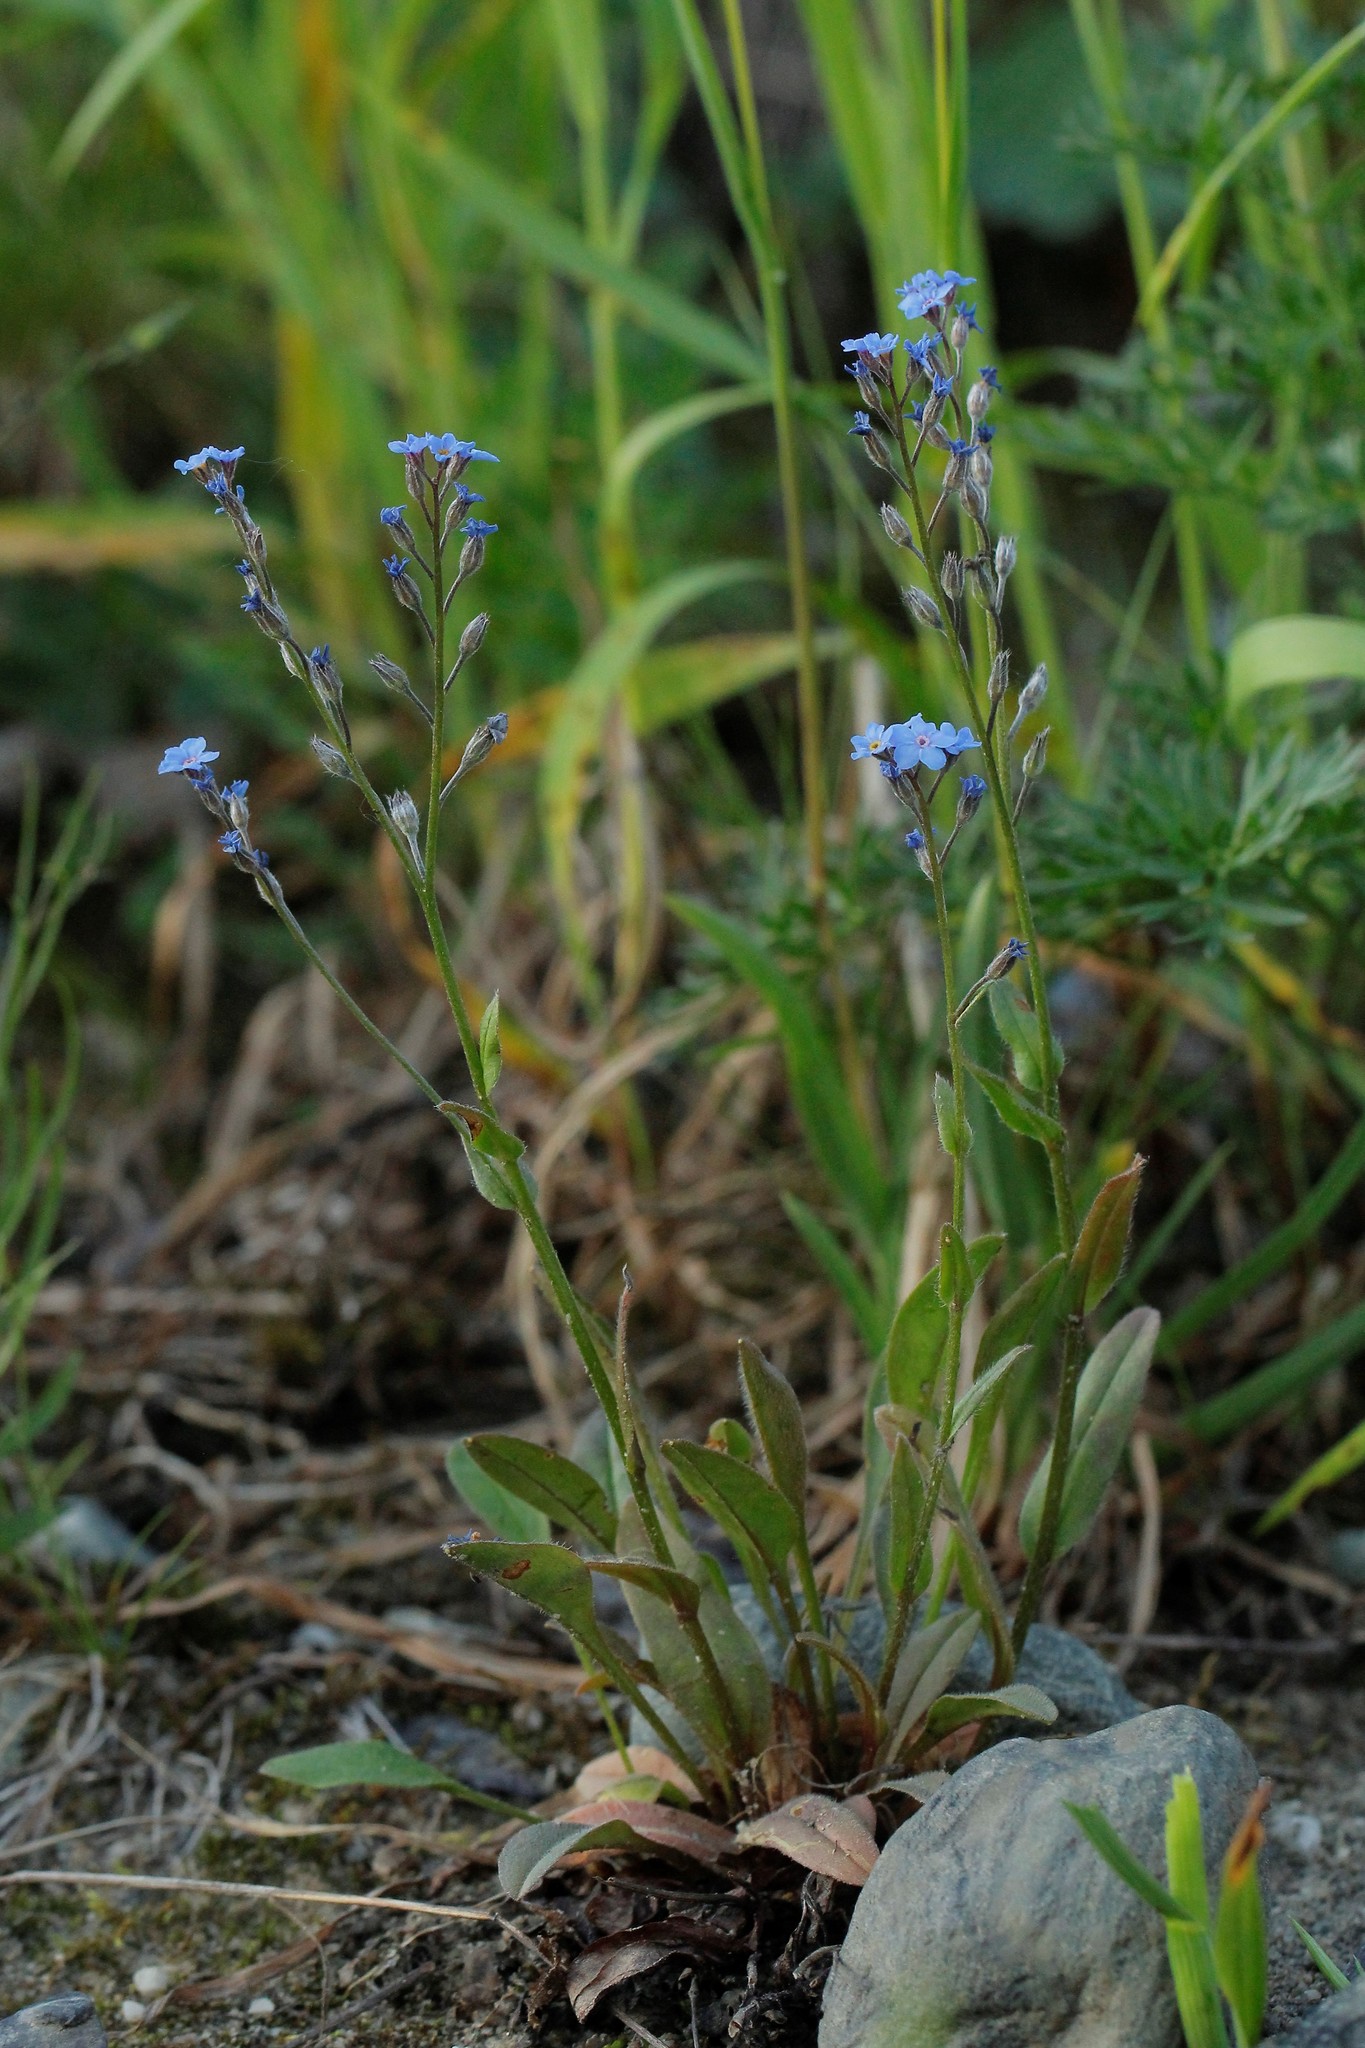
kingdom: Plantae
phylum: Tracheophyta
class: Magnoliopsida
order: Boraginales
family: Boraginaceae
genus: Myosotis
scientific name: Myosotis asiatica
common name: Asian forget-me-not
